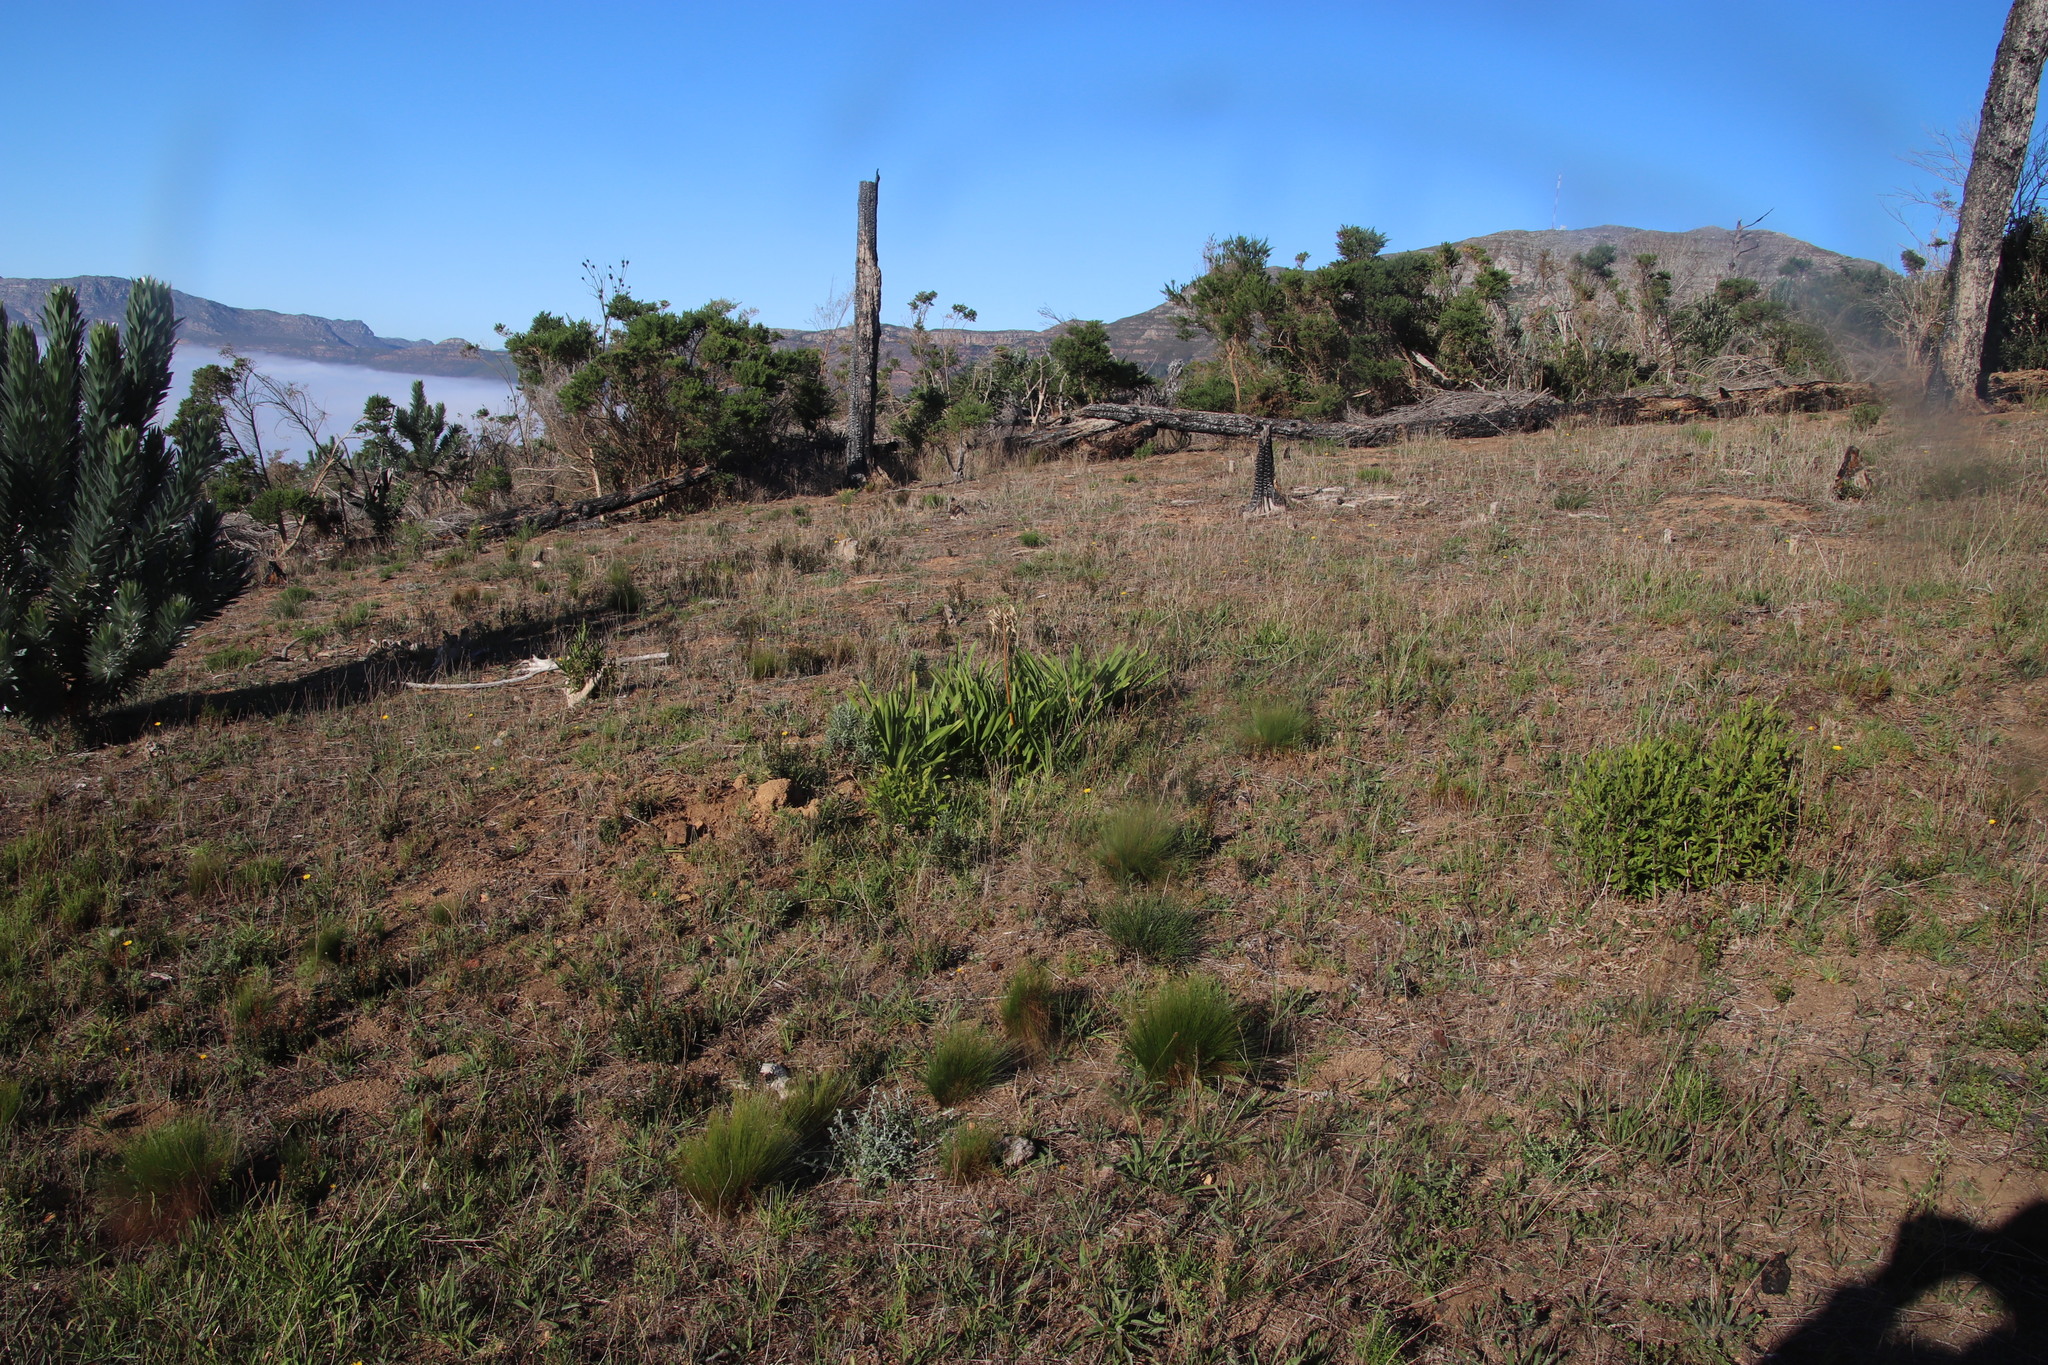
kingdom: Plantae
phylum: Tracheophyta
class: Liliopsida
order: Asparagales
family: Amaryllidaceae
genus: Agapanthus
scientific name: Agapanthus praecox
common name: African-lily
